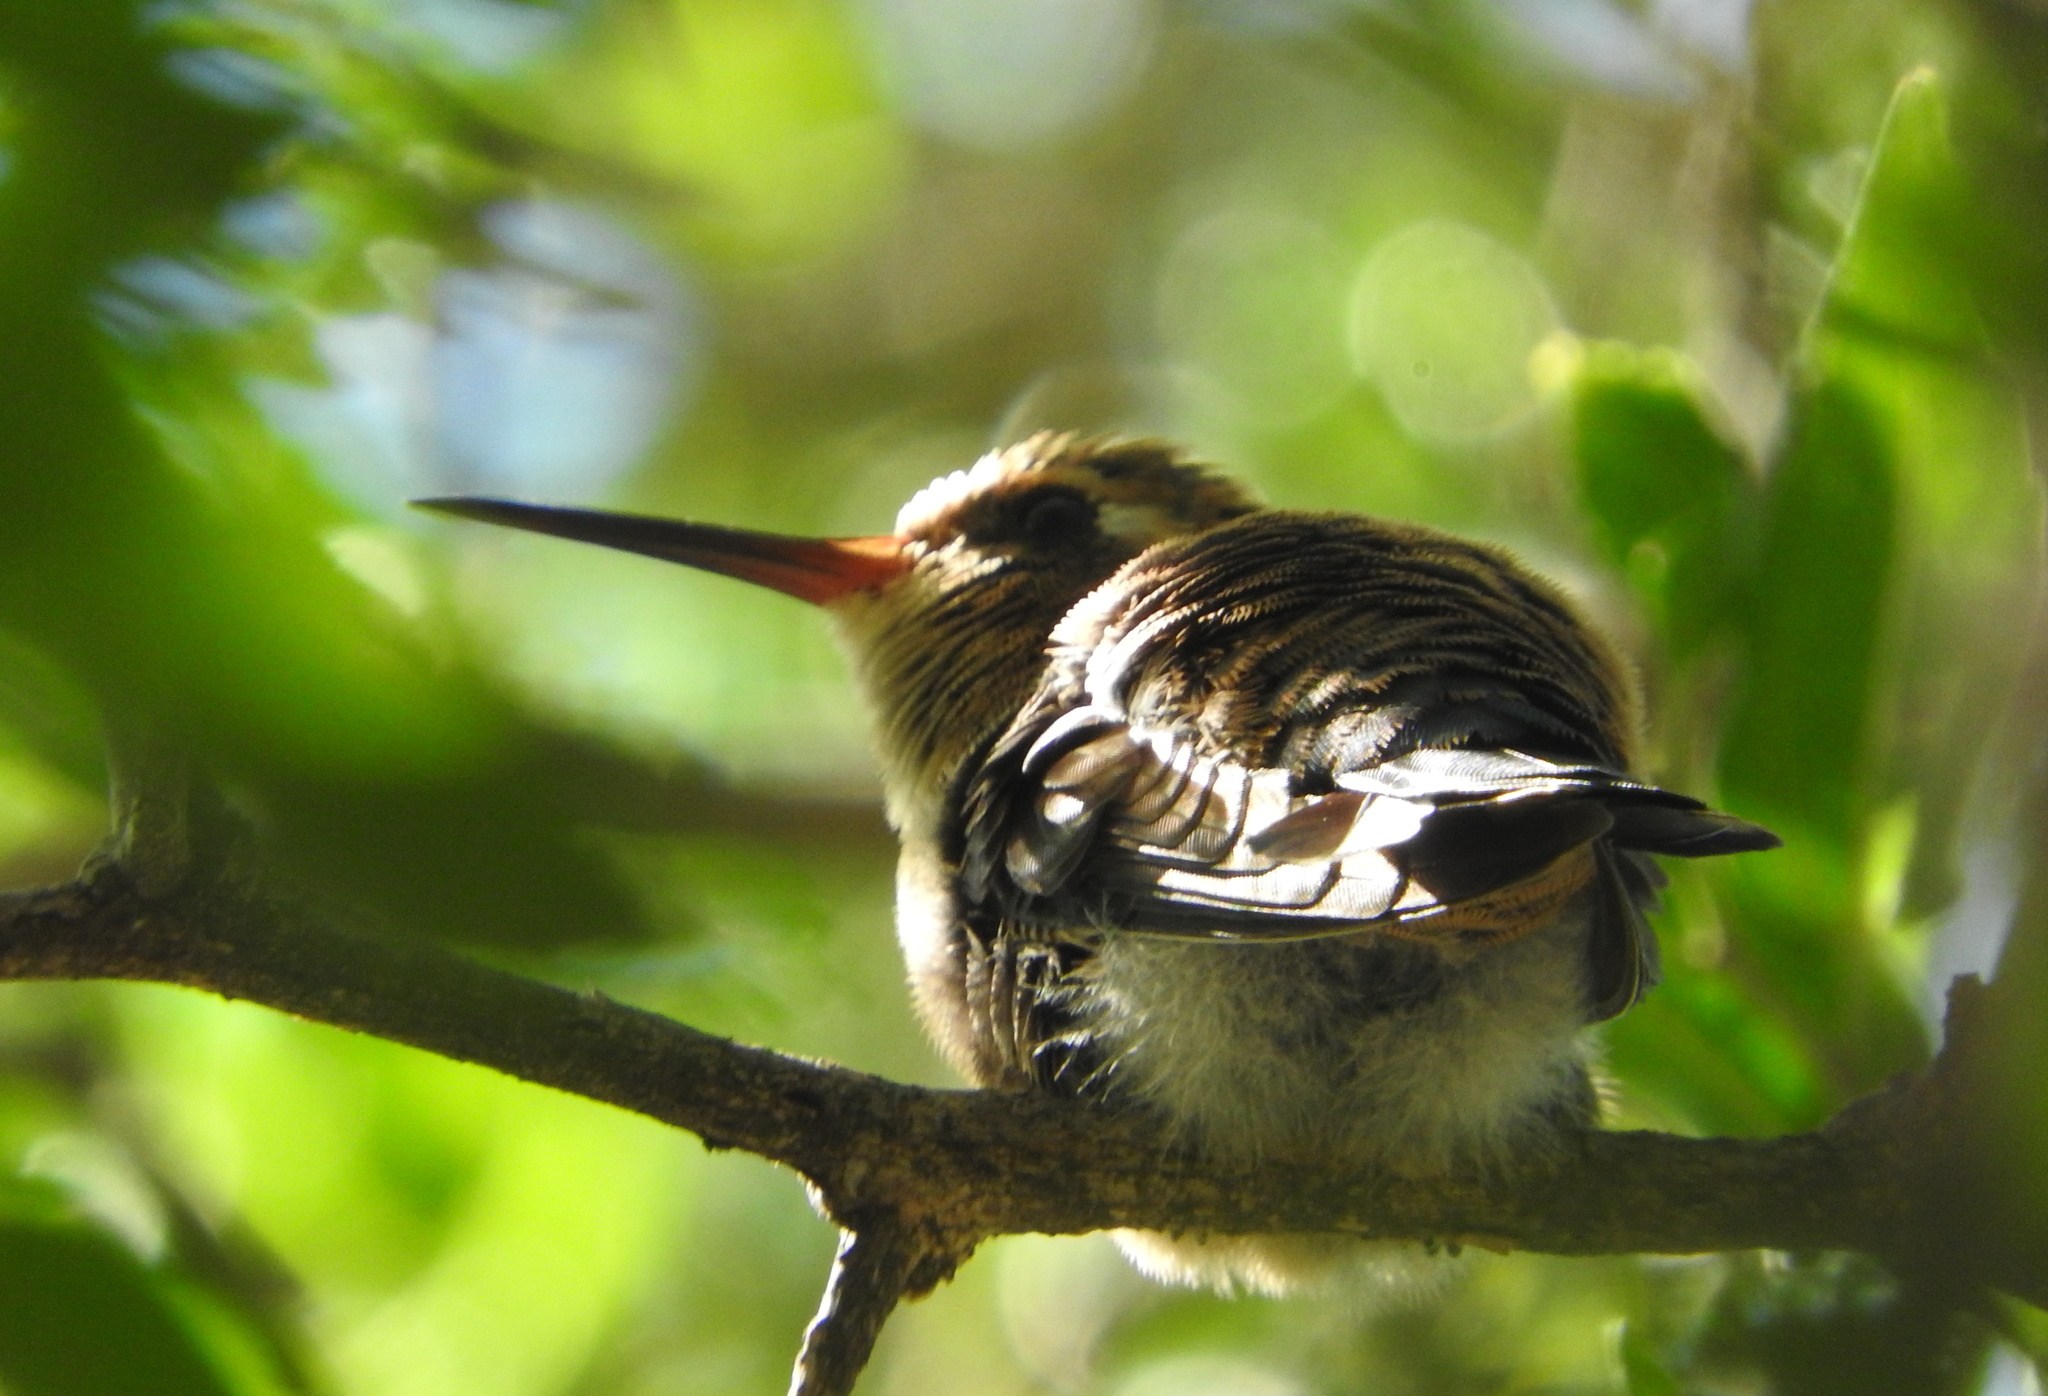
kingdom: Animalia
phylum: Chordata
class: Aves
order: Apodiformes
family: Trochilidae
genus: Chlorostilbon
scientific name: Chlorostilbon lucidus
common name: Glittering-bellied emerald
